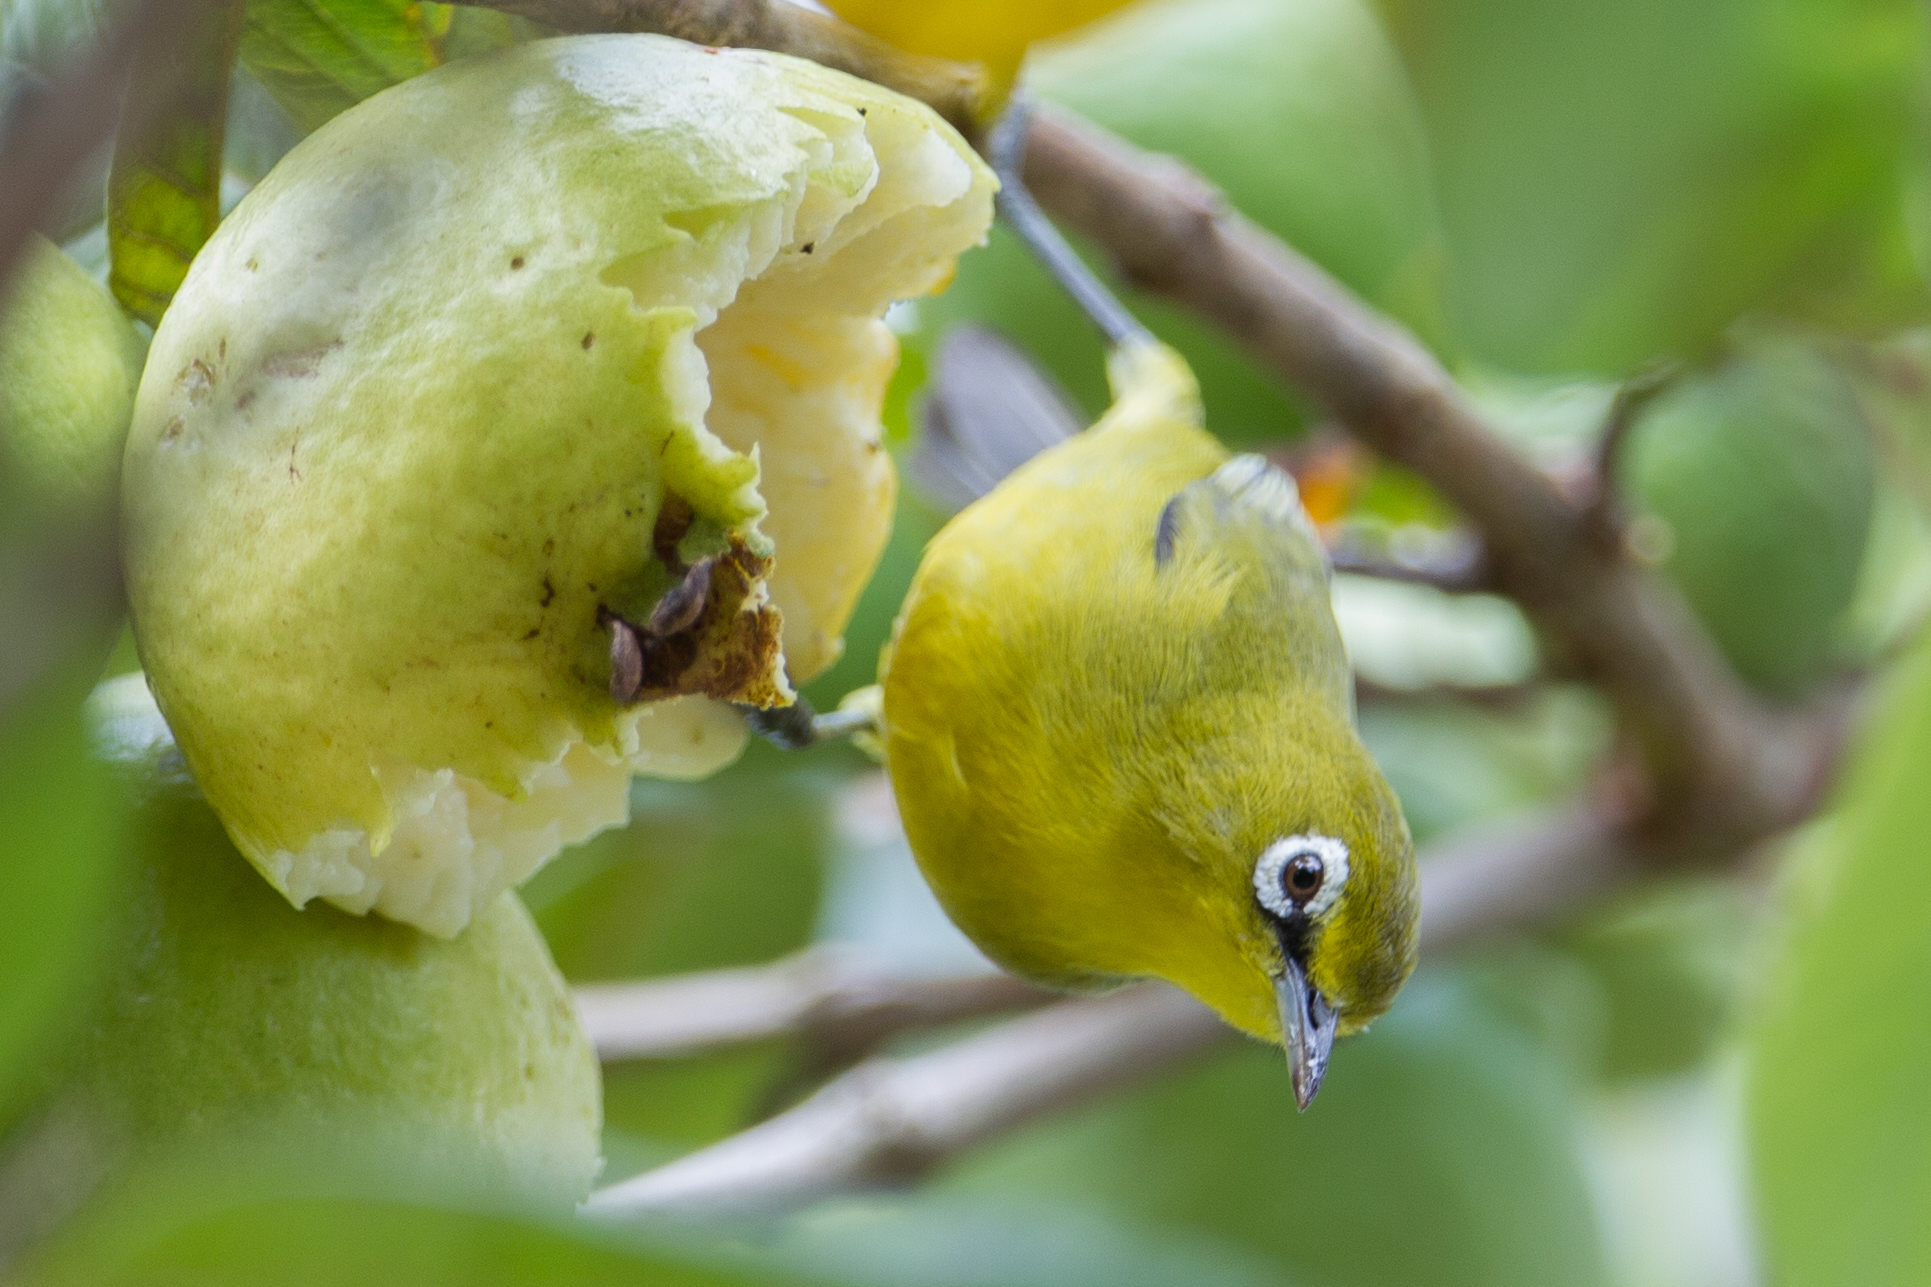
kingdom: Animalia
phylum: Chordata
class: Aves
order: Passeriformes
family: Zosteropidae
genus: Zosterops
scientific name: Zosterops chloris
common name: Lemon-bellied white-eye
